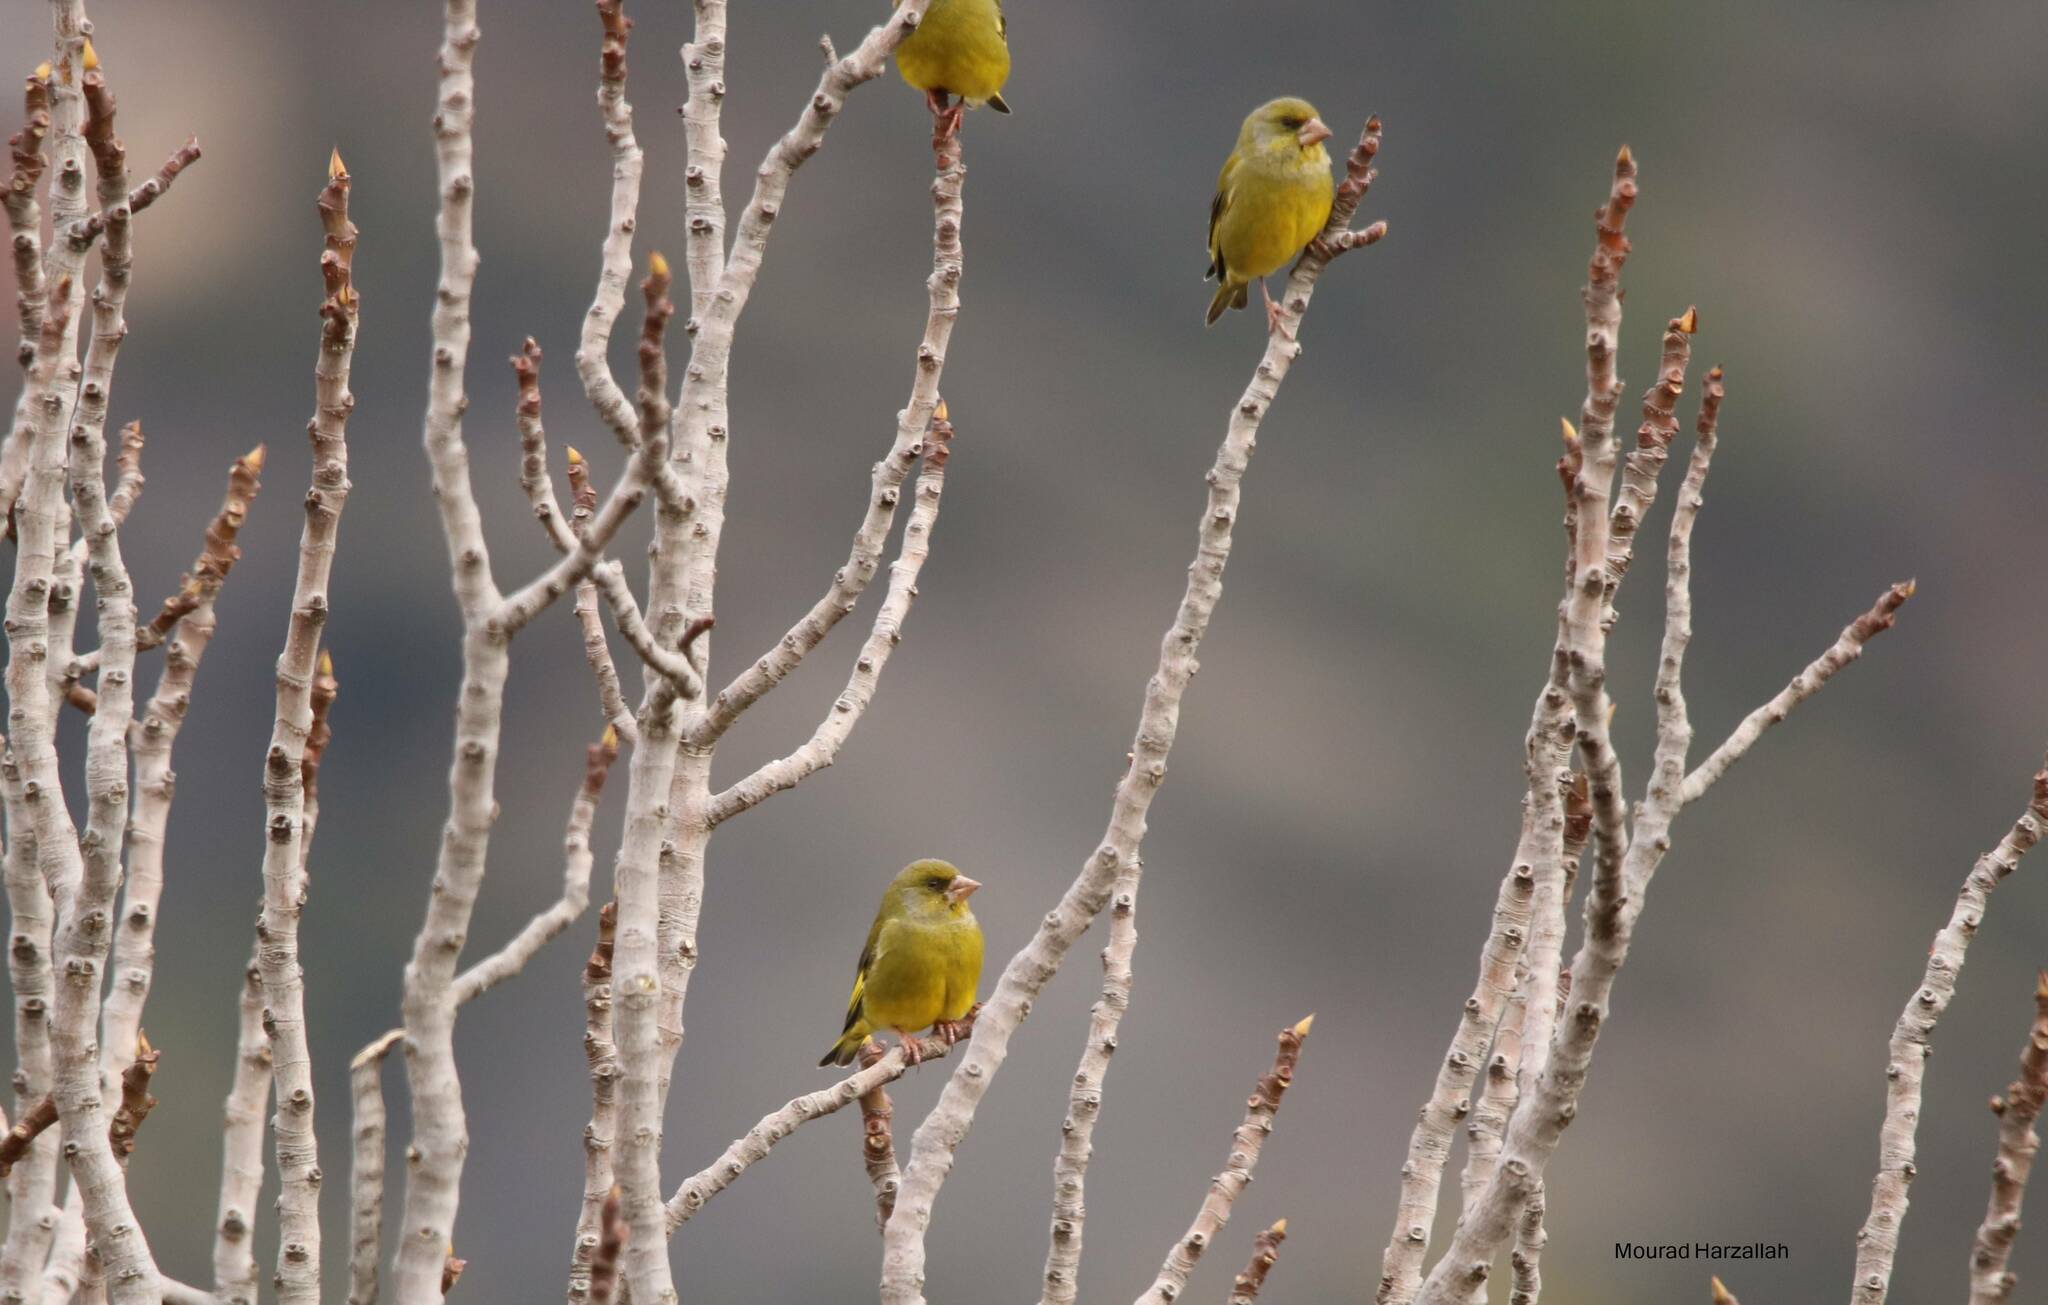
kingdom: Plantae
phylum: Tracheophyta
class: Liliopsida
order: Poales
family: Poaceae
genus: Chloris
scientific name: Chloris chloris
